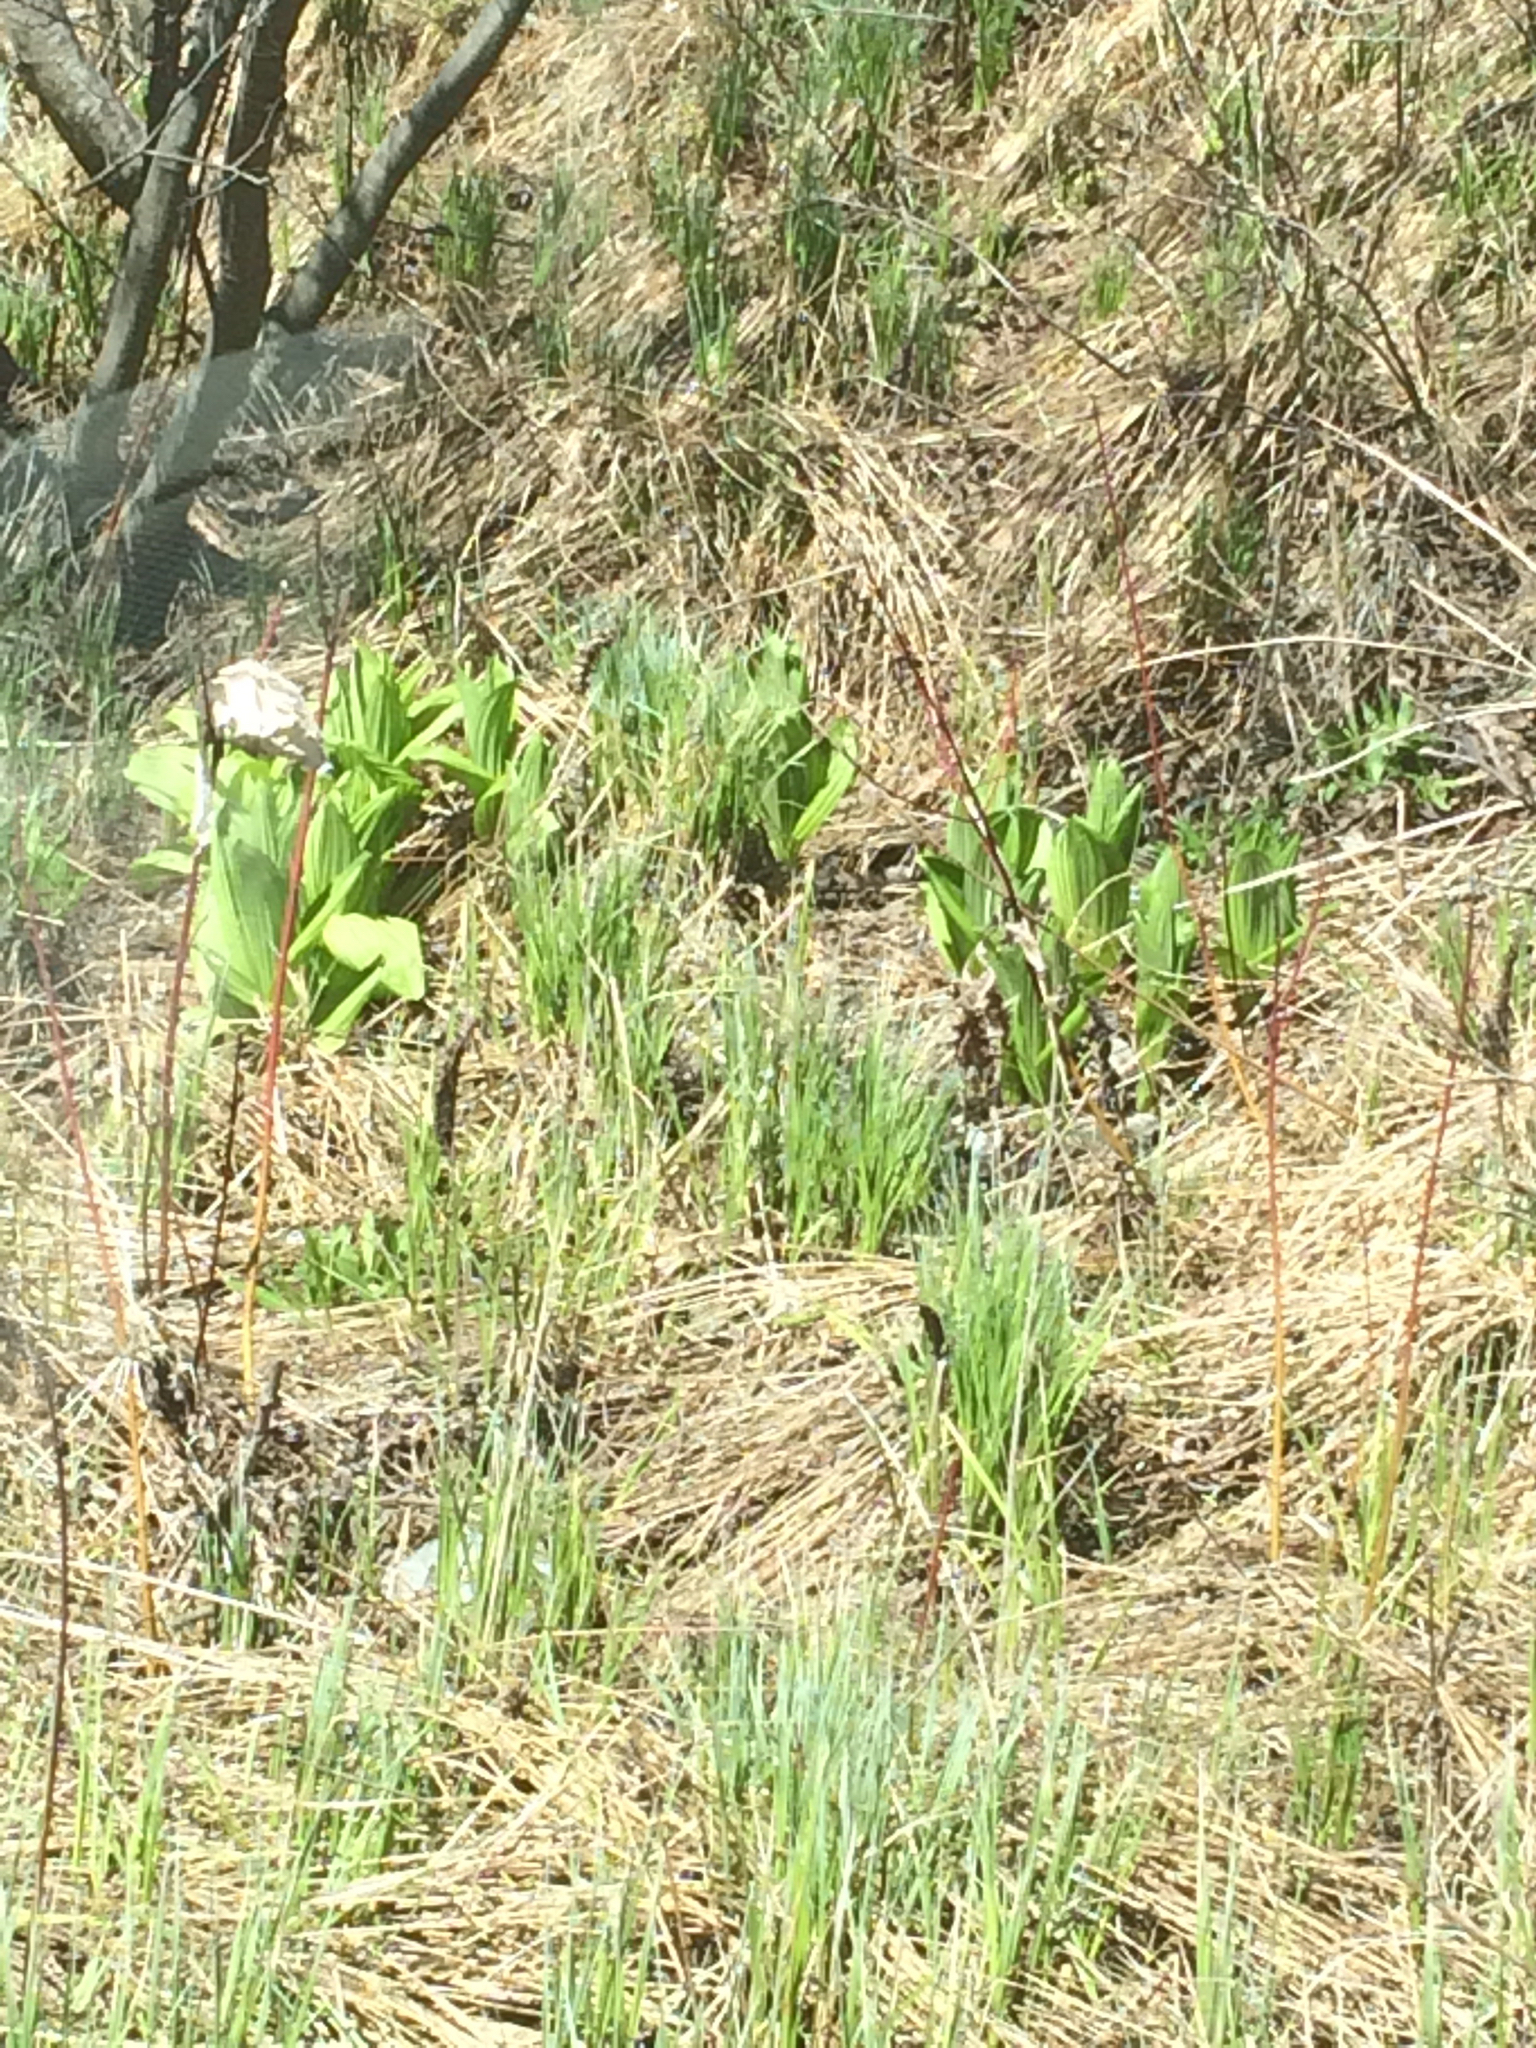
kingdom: Plantae
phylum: Tracheophyta
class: Liliopsida
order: Liliales
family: Melanthiaceae
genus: Veratrum
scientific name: Veratrum viride
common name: American false hellebore
